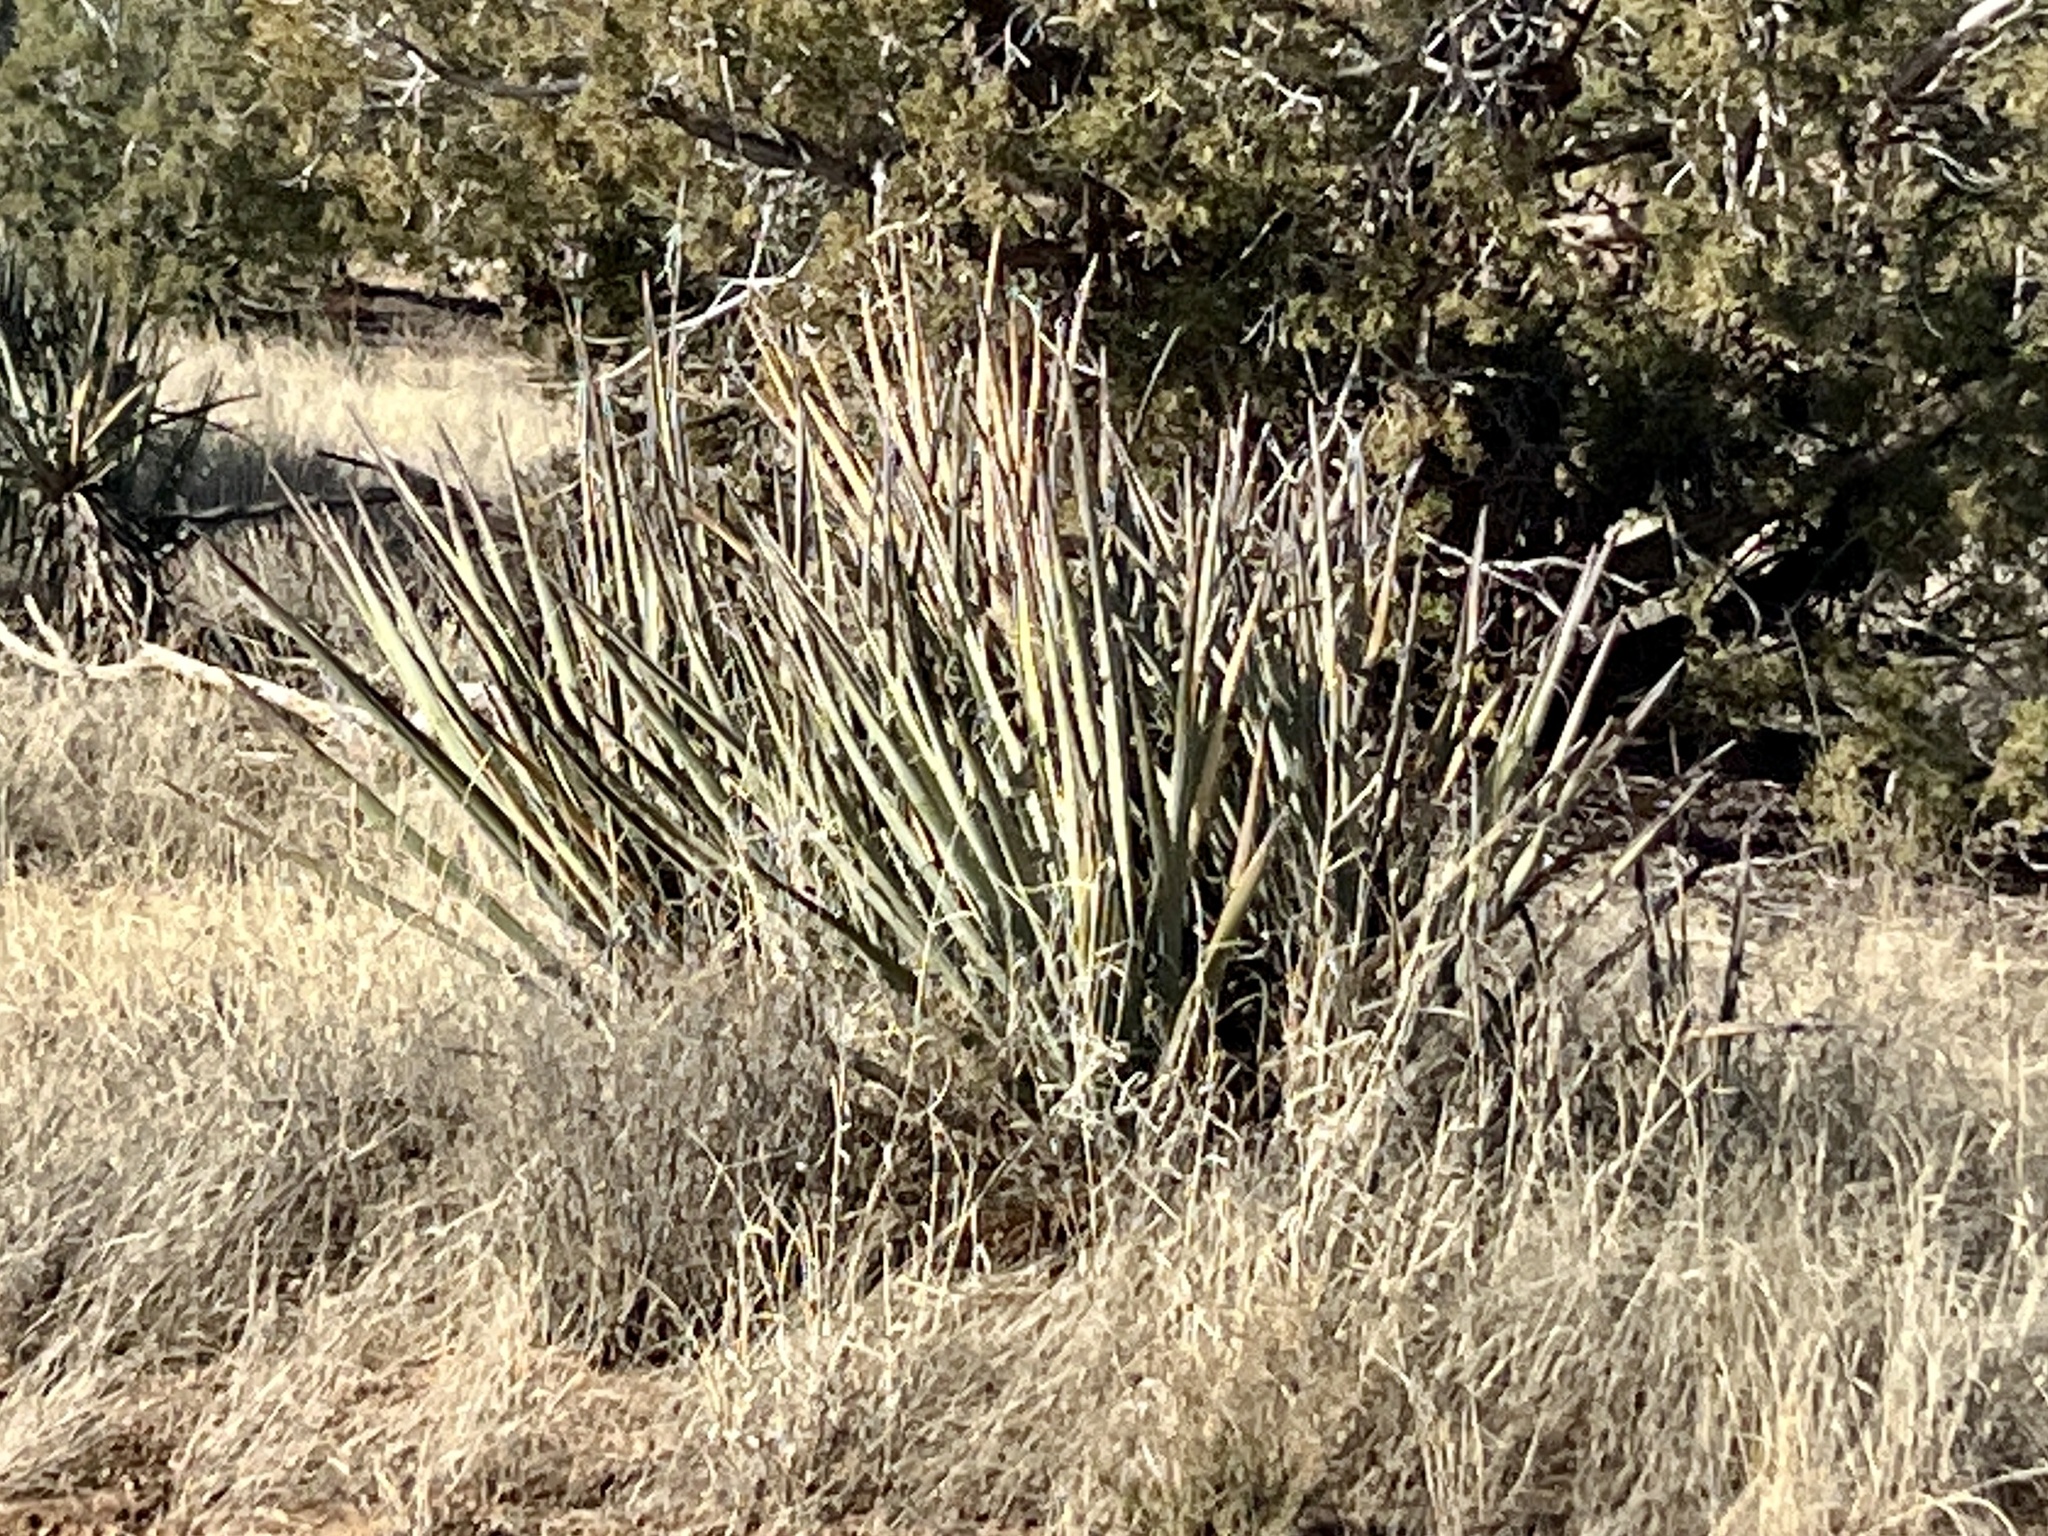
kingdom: Plantae
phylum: Tracheophyta
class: Liliopsida
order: Asparagales
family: Asparagaceae
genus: Yucca
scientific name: Yucca baccata
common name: Banana yucca
